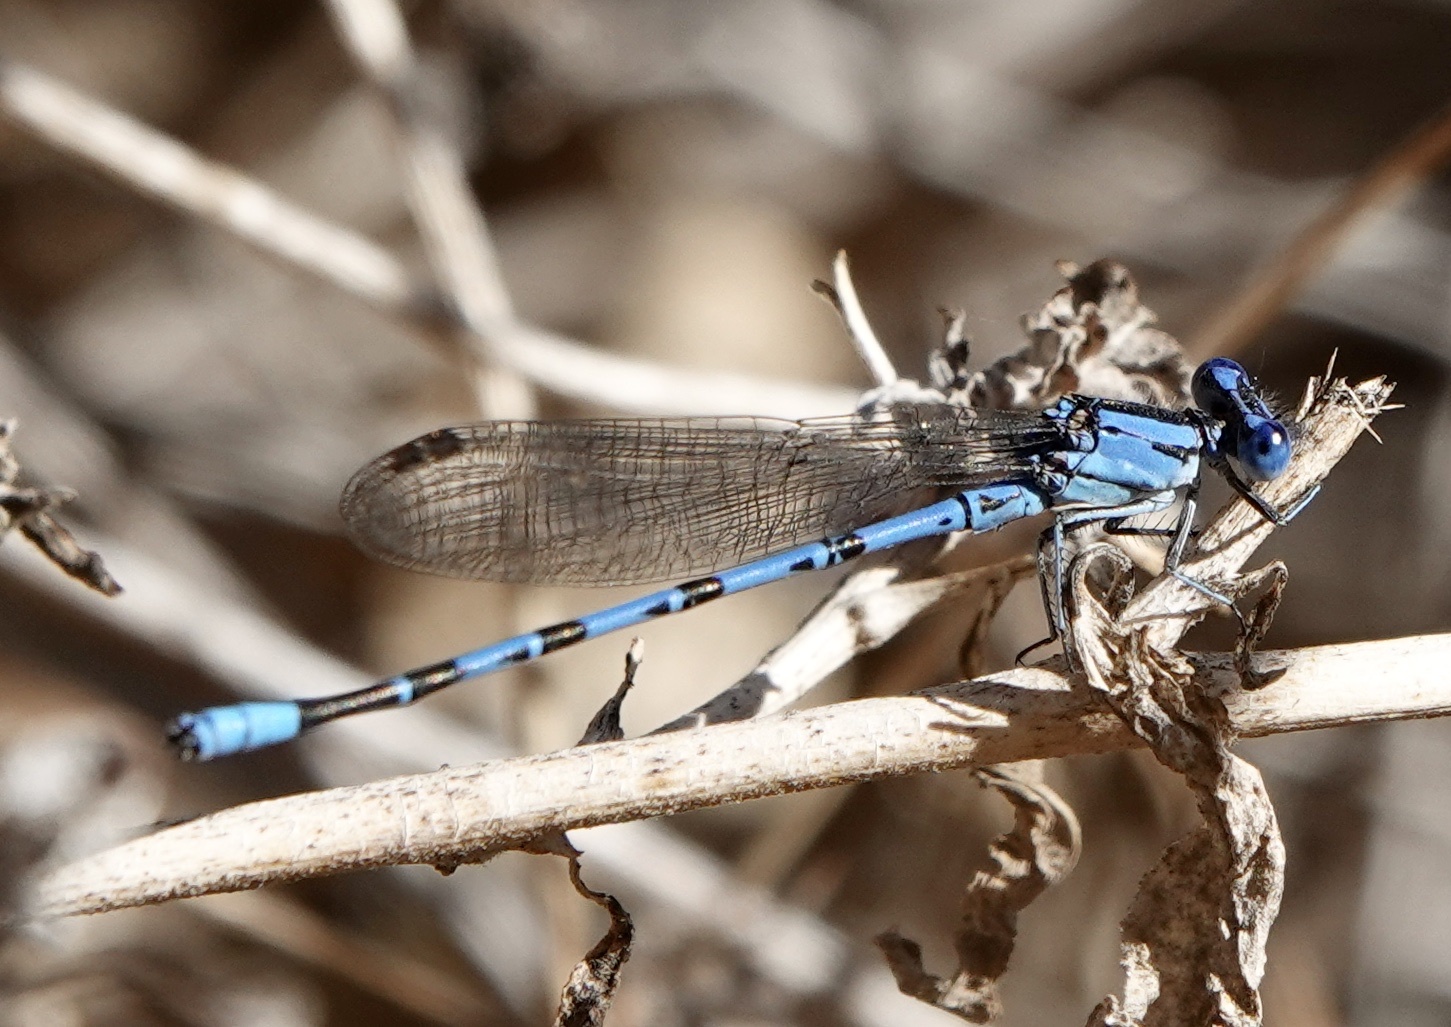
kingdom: Animalia
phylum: Arthropoda
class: Insecta
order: Odonata
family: Coenagrionidae
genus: Argia
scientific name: Argia vivida
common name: Vivid dancer
